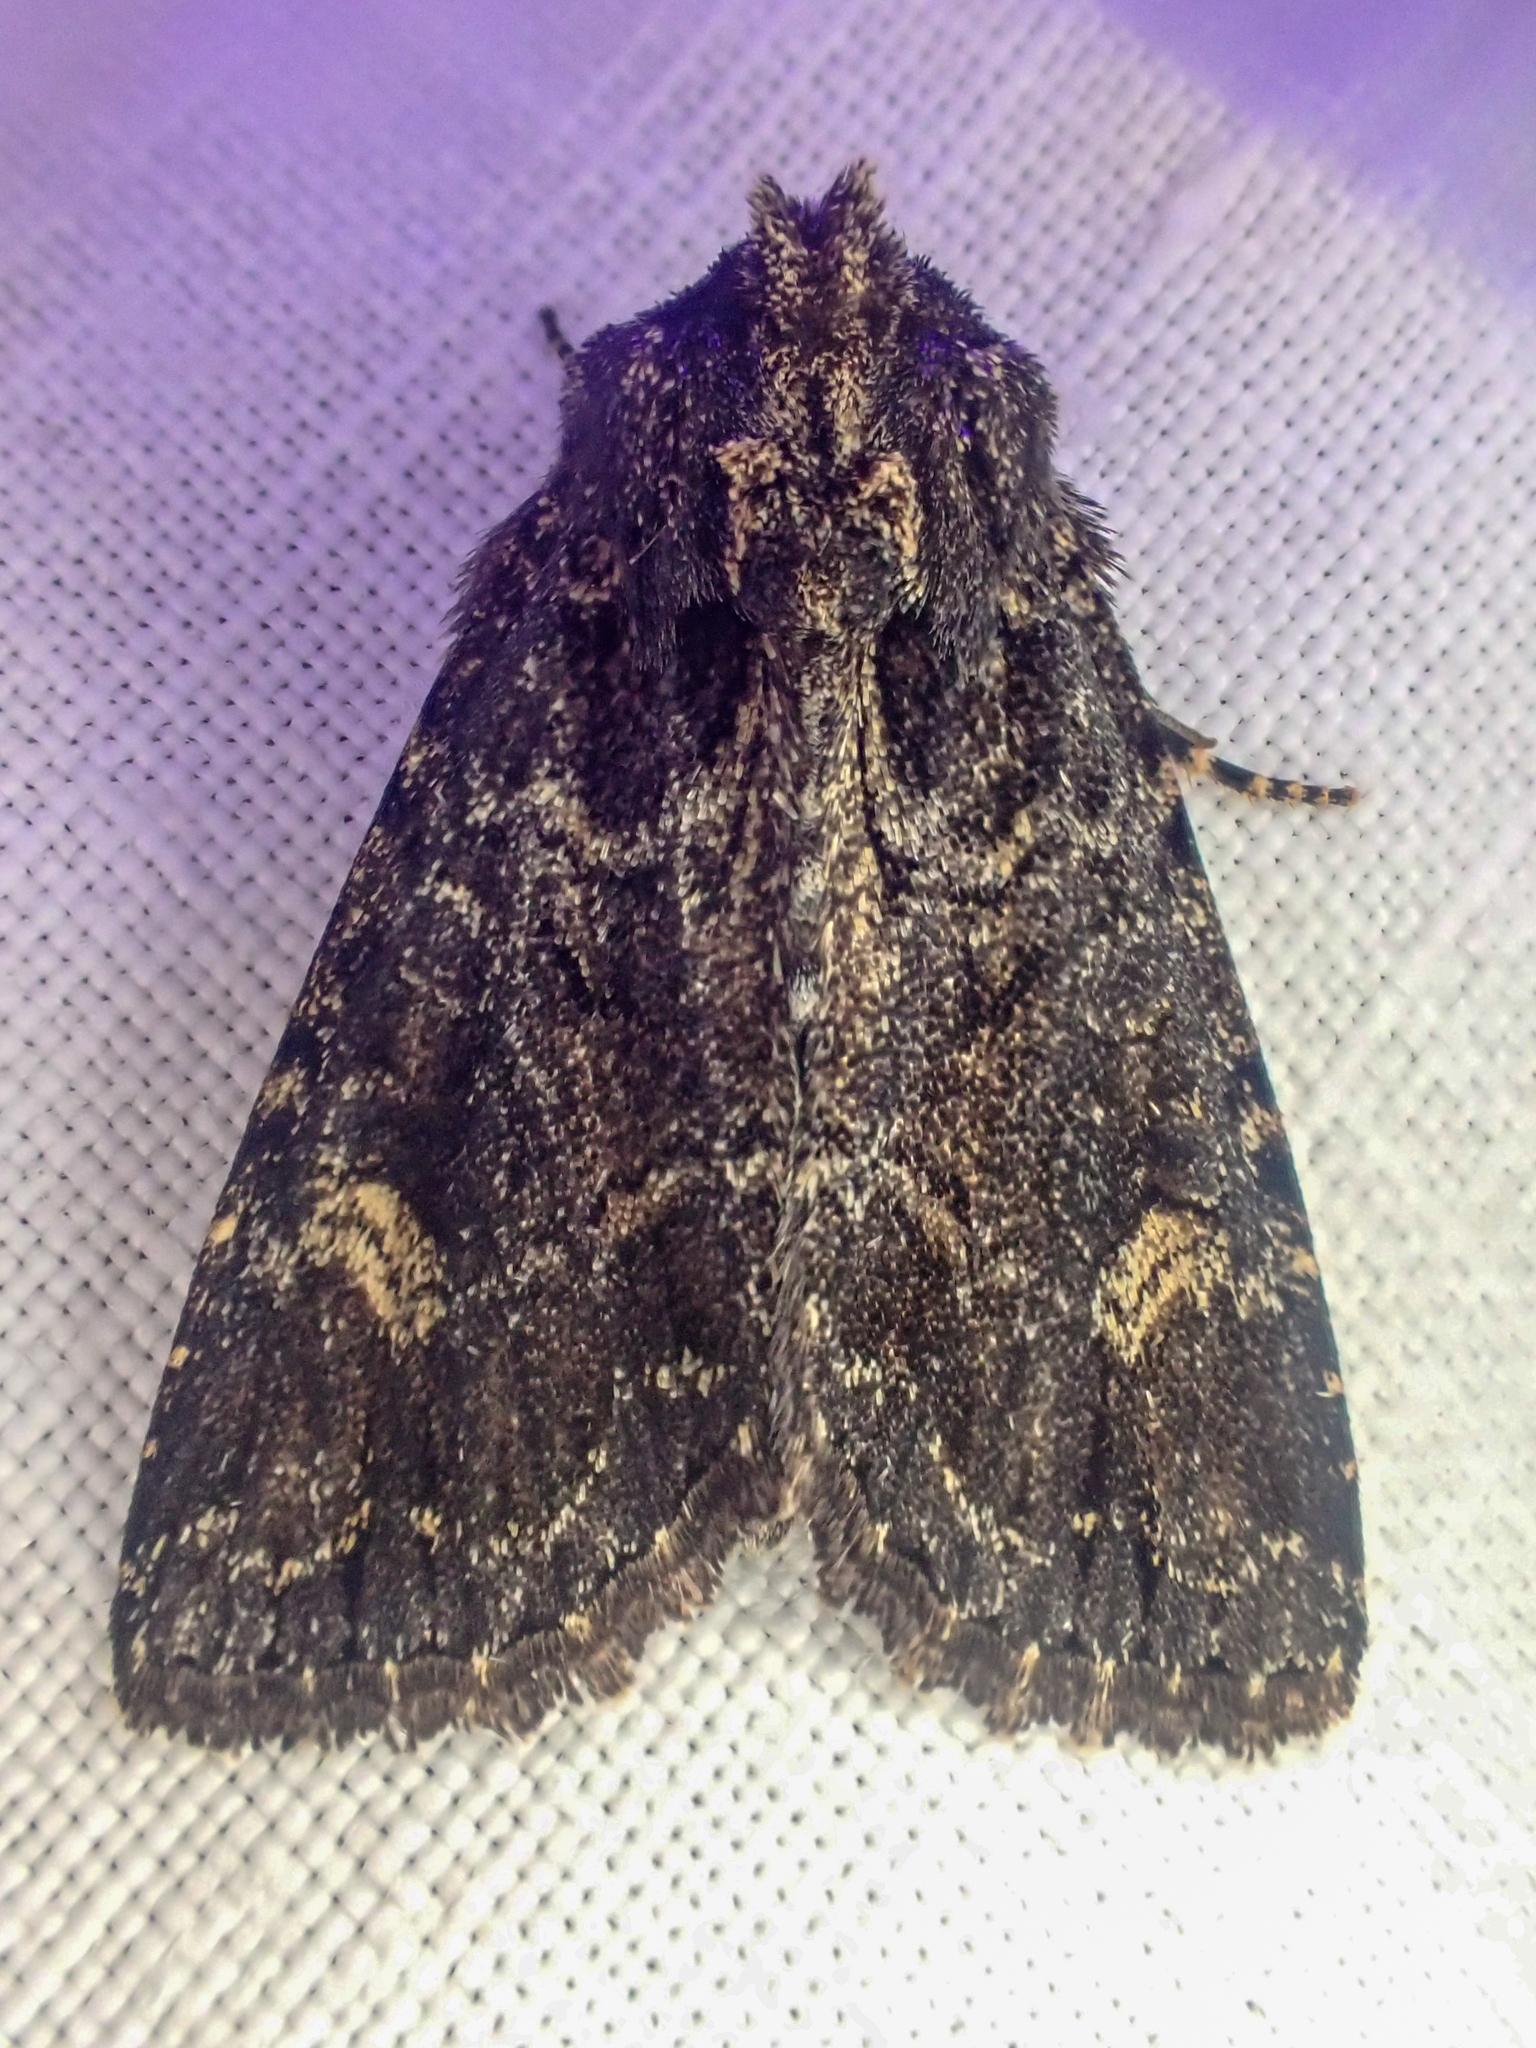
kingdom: Animalia
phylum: Arthropoda
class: Insecta
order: Lepidoptera
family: Noctuidae
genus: Aseptis
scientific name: Aseptis binotata
